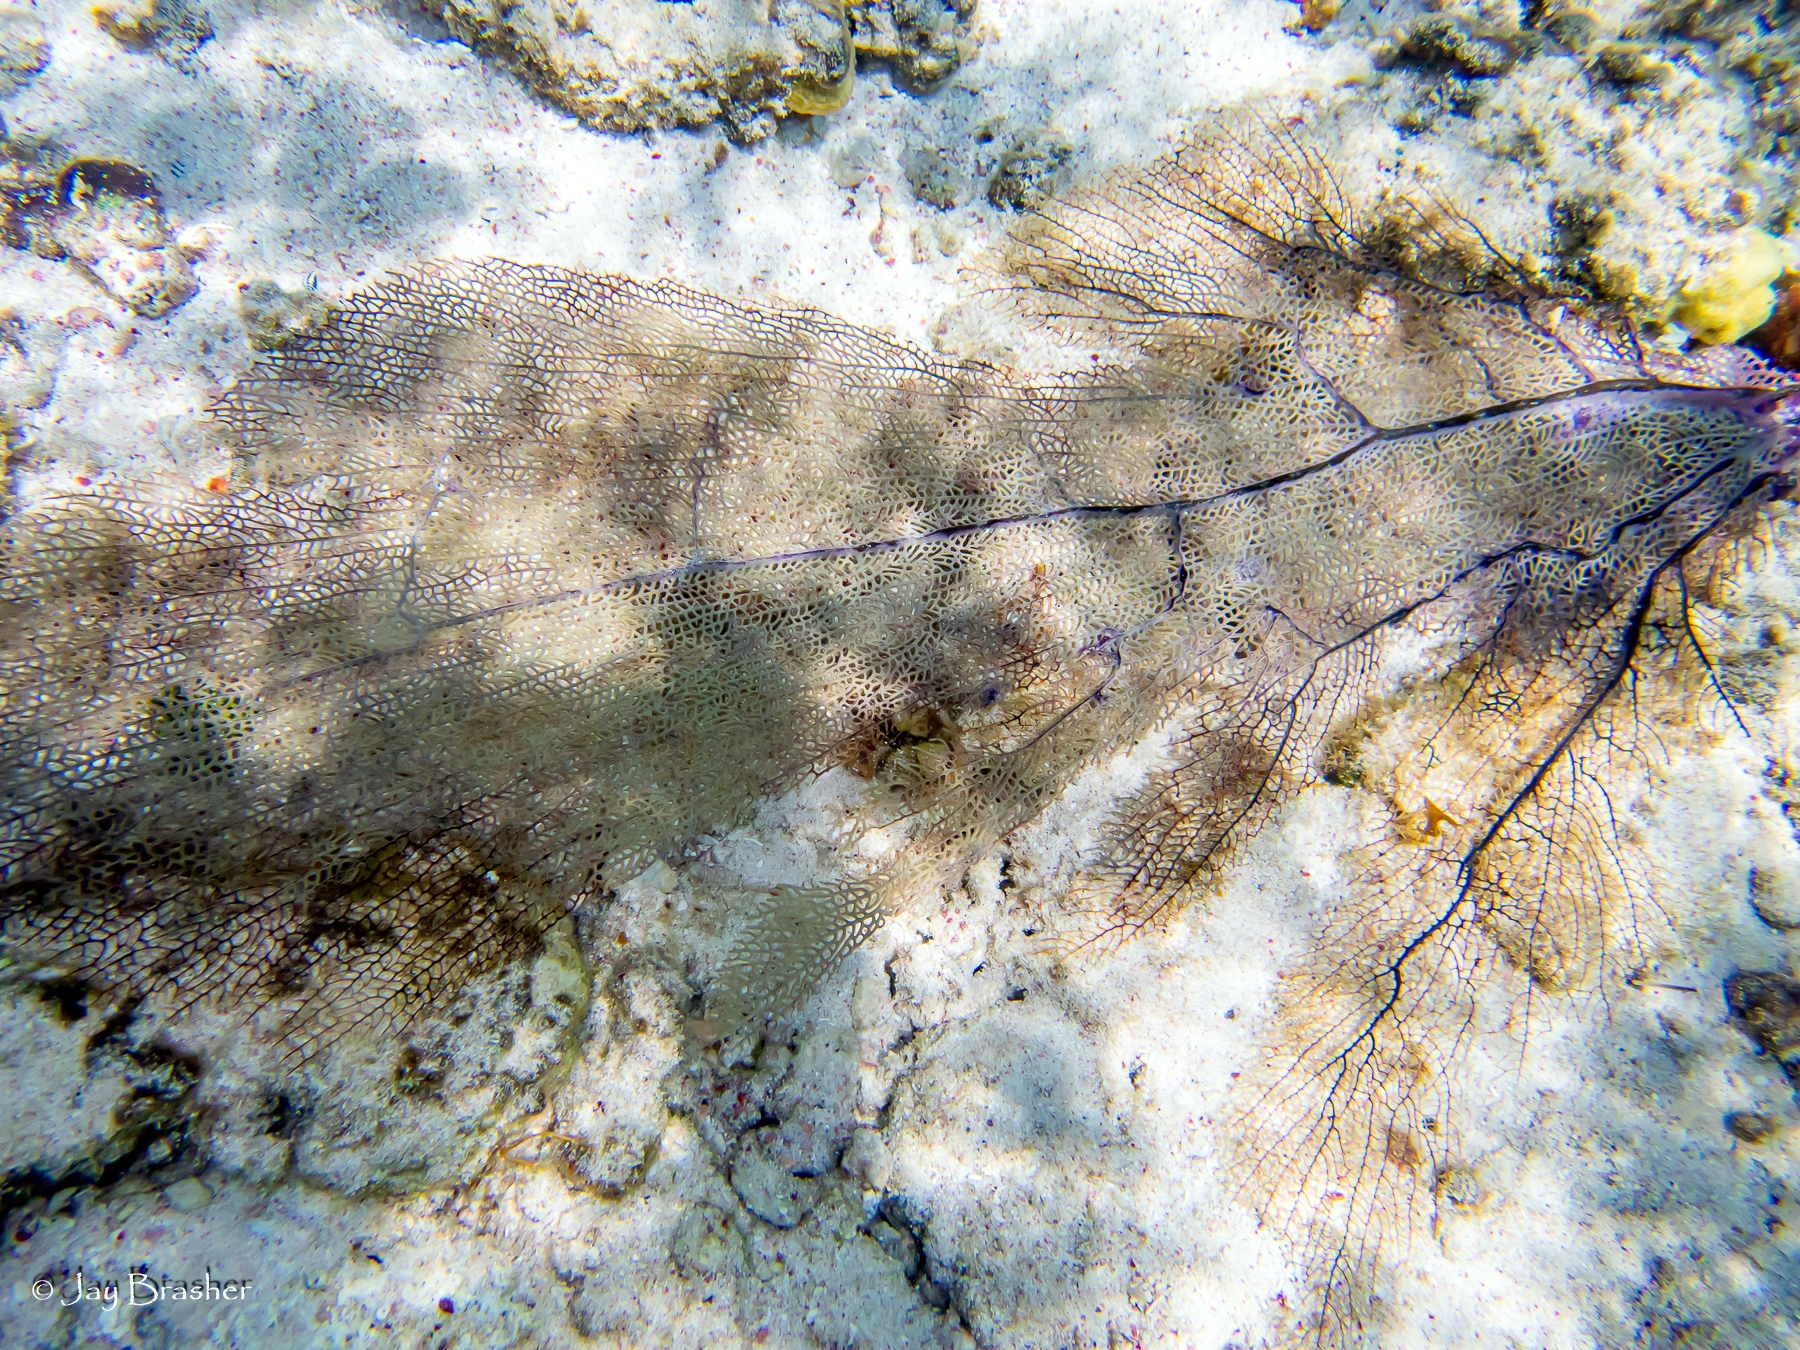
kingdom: Animalia
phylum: Cnidaria
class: Anthozoa
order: Malacalcyonacea
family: Gorgoniidae
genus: Gorgonia
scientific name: Gorgonia ventalina
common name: Common sea fan
